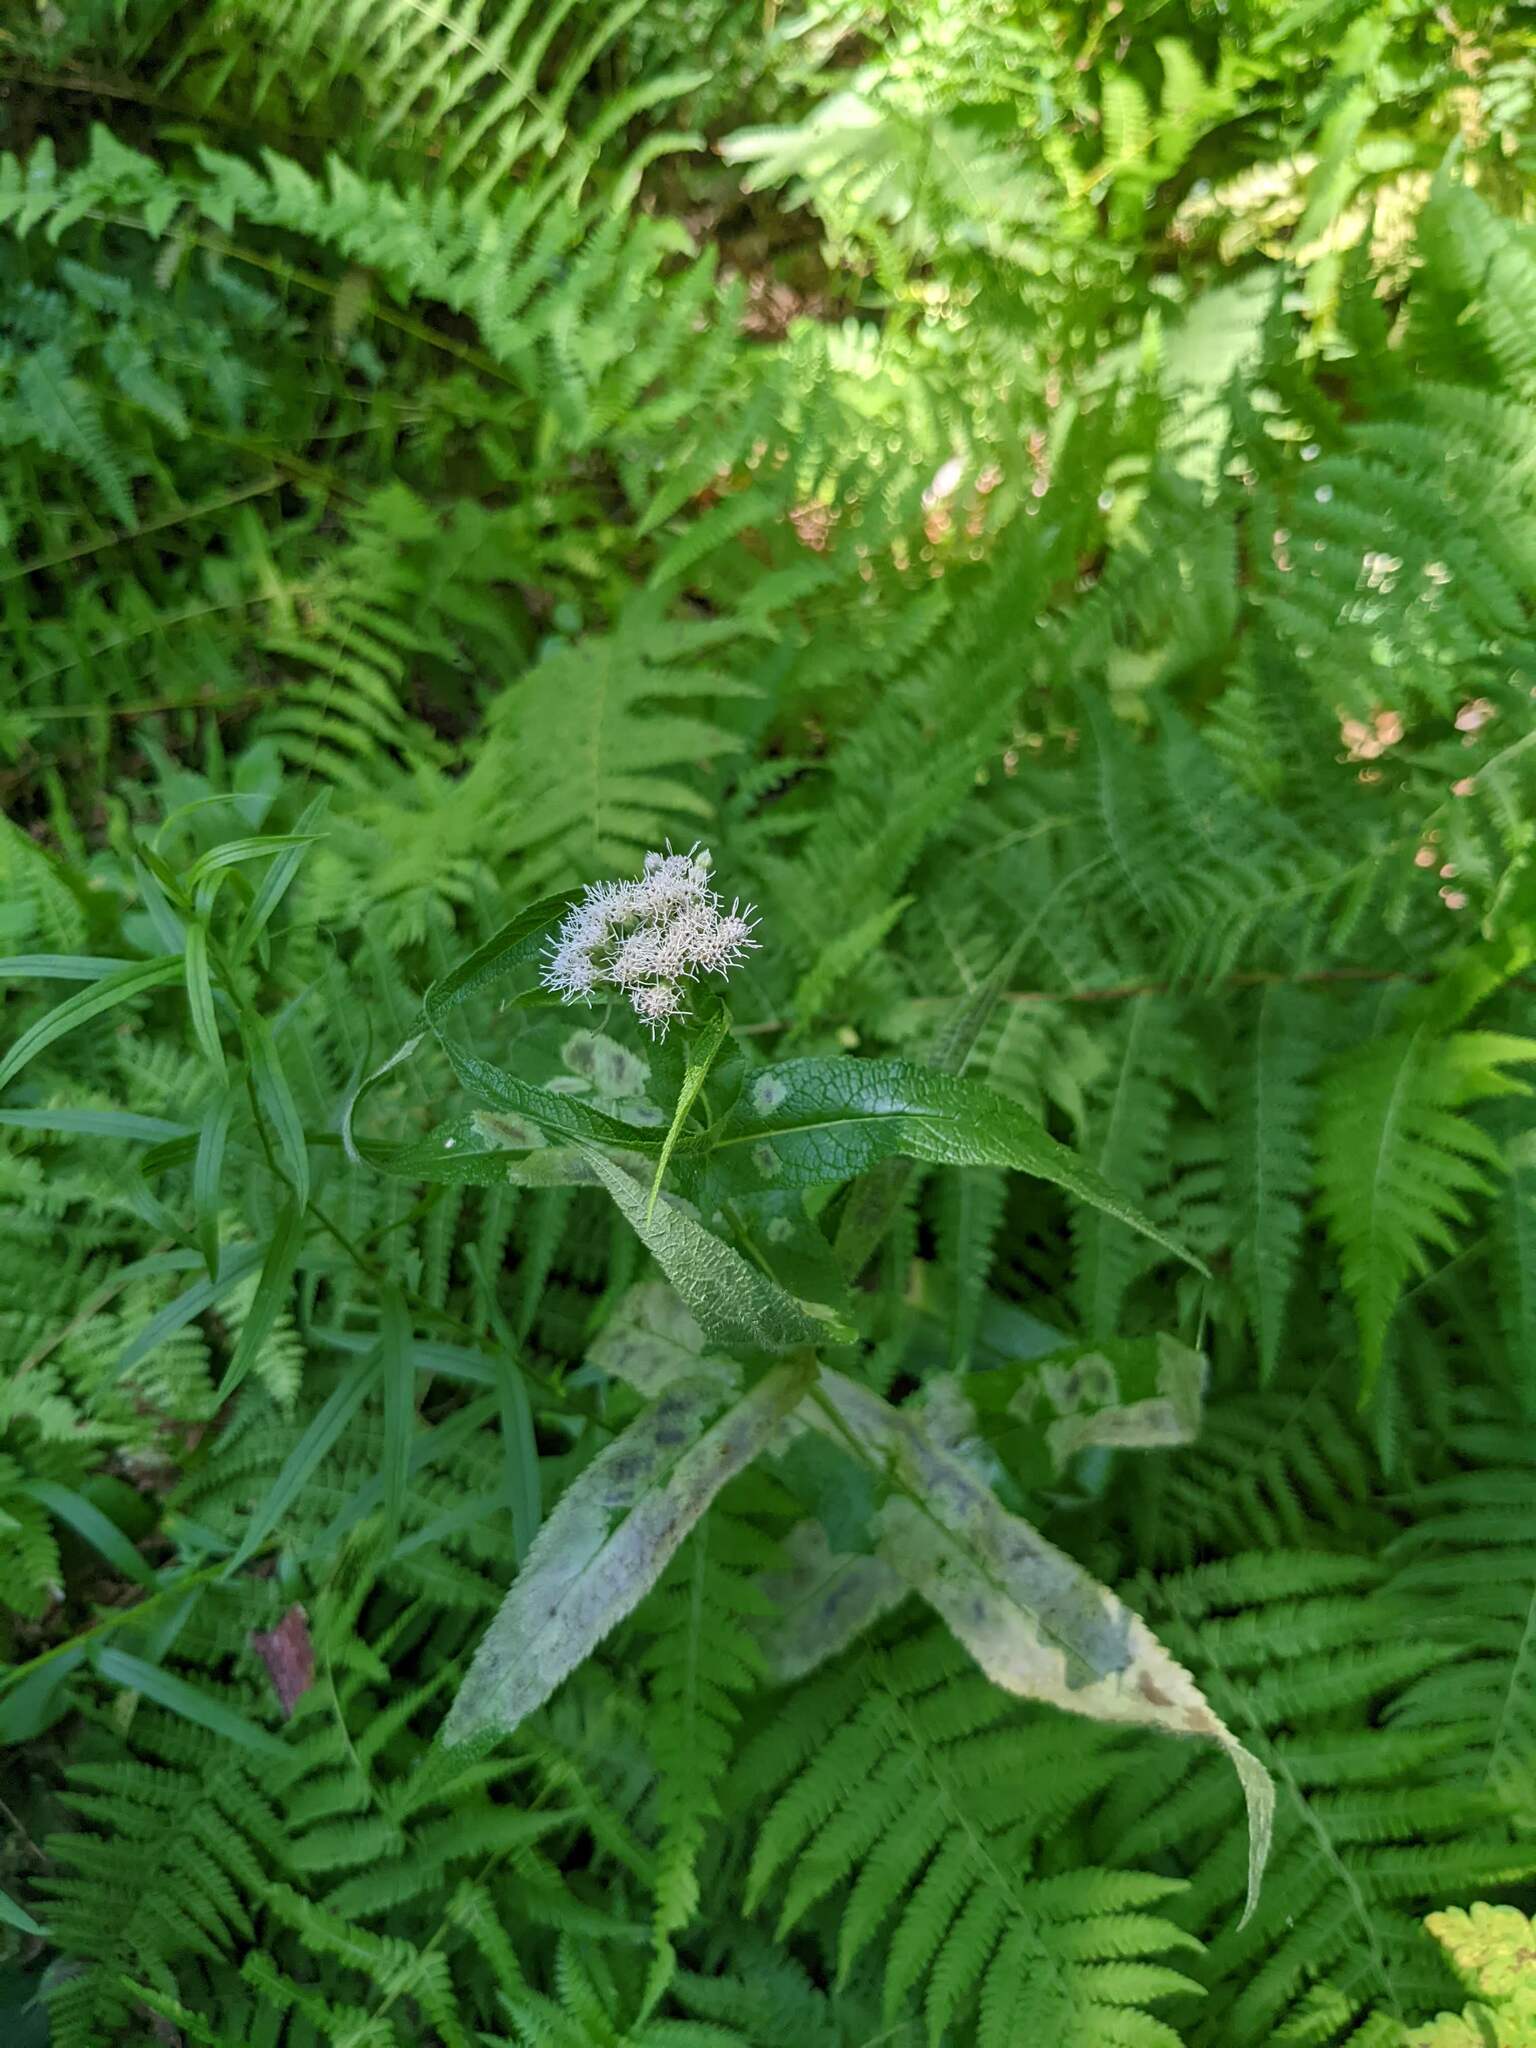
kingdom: Plantae
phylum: Tracheophyta
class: Magnoliopsida
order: Asterales
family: Asteraceae
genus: Eupatorium
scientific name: Eupatorium perfoliatum
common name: Boneset
